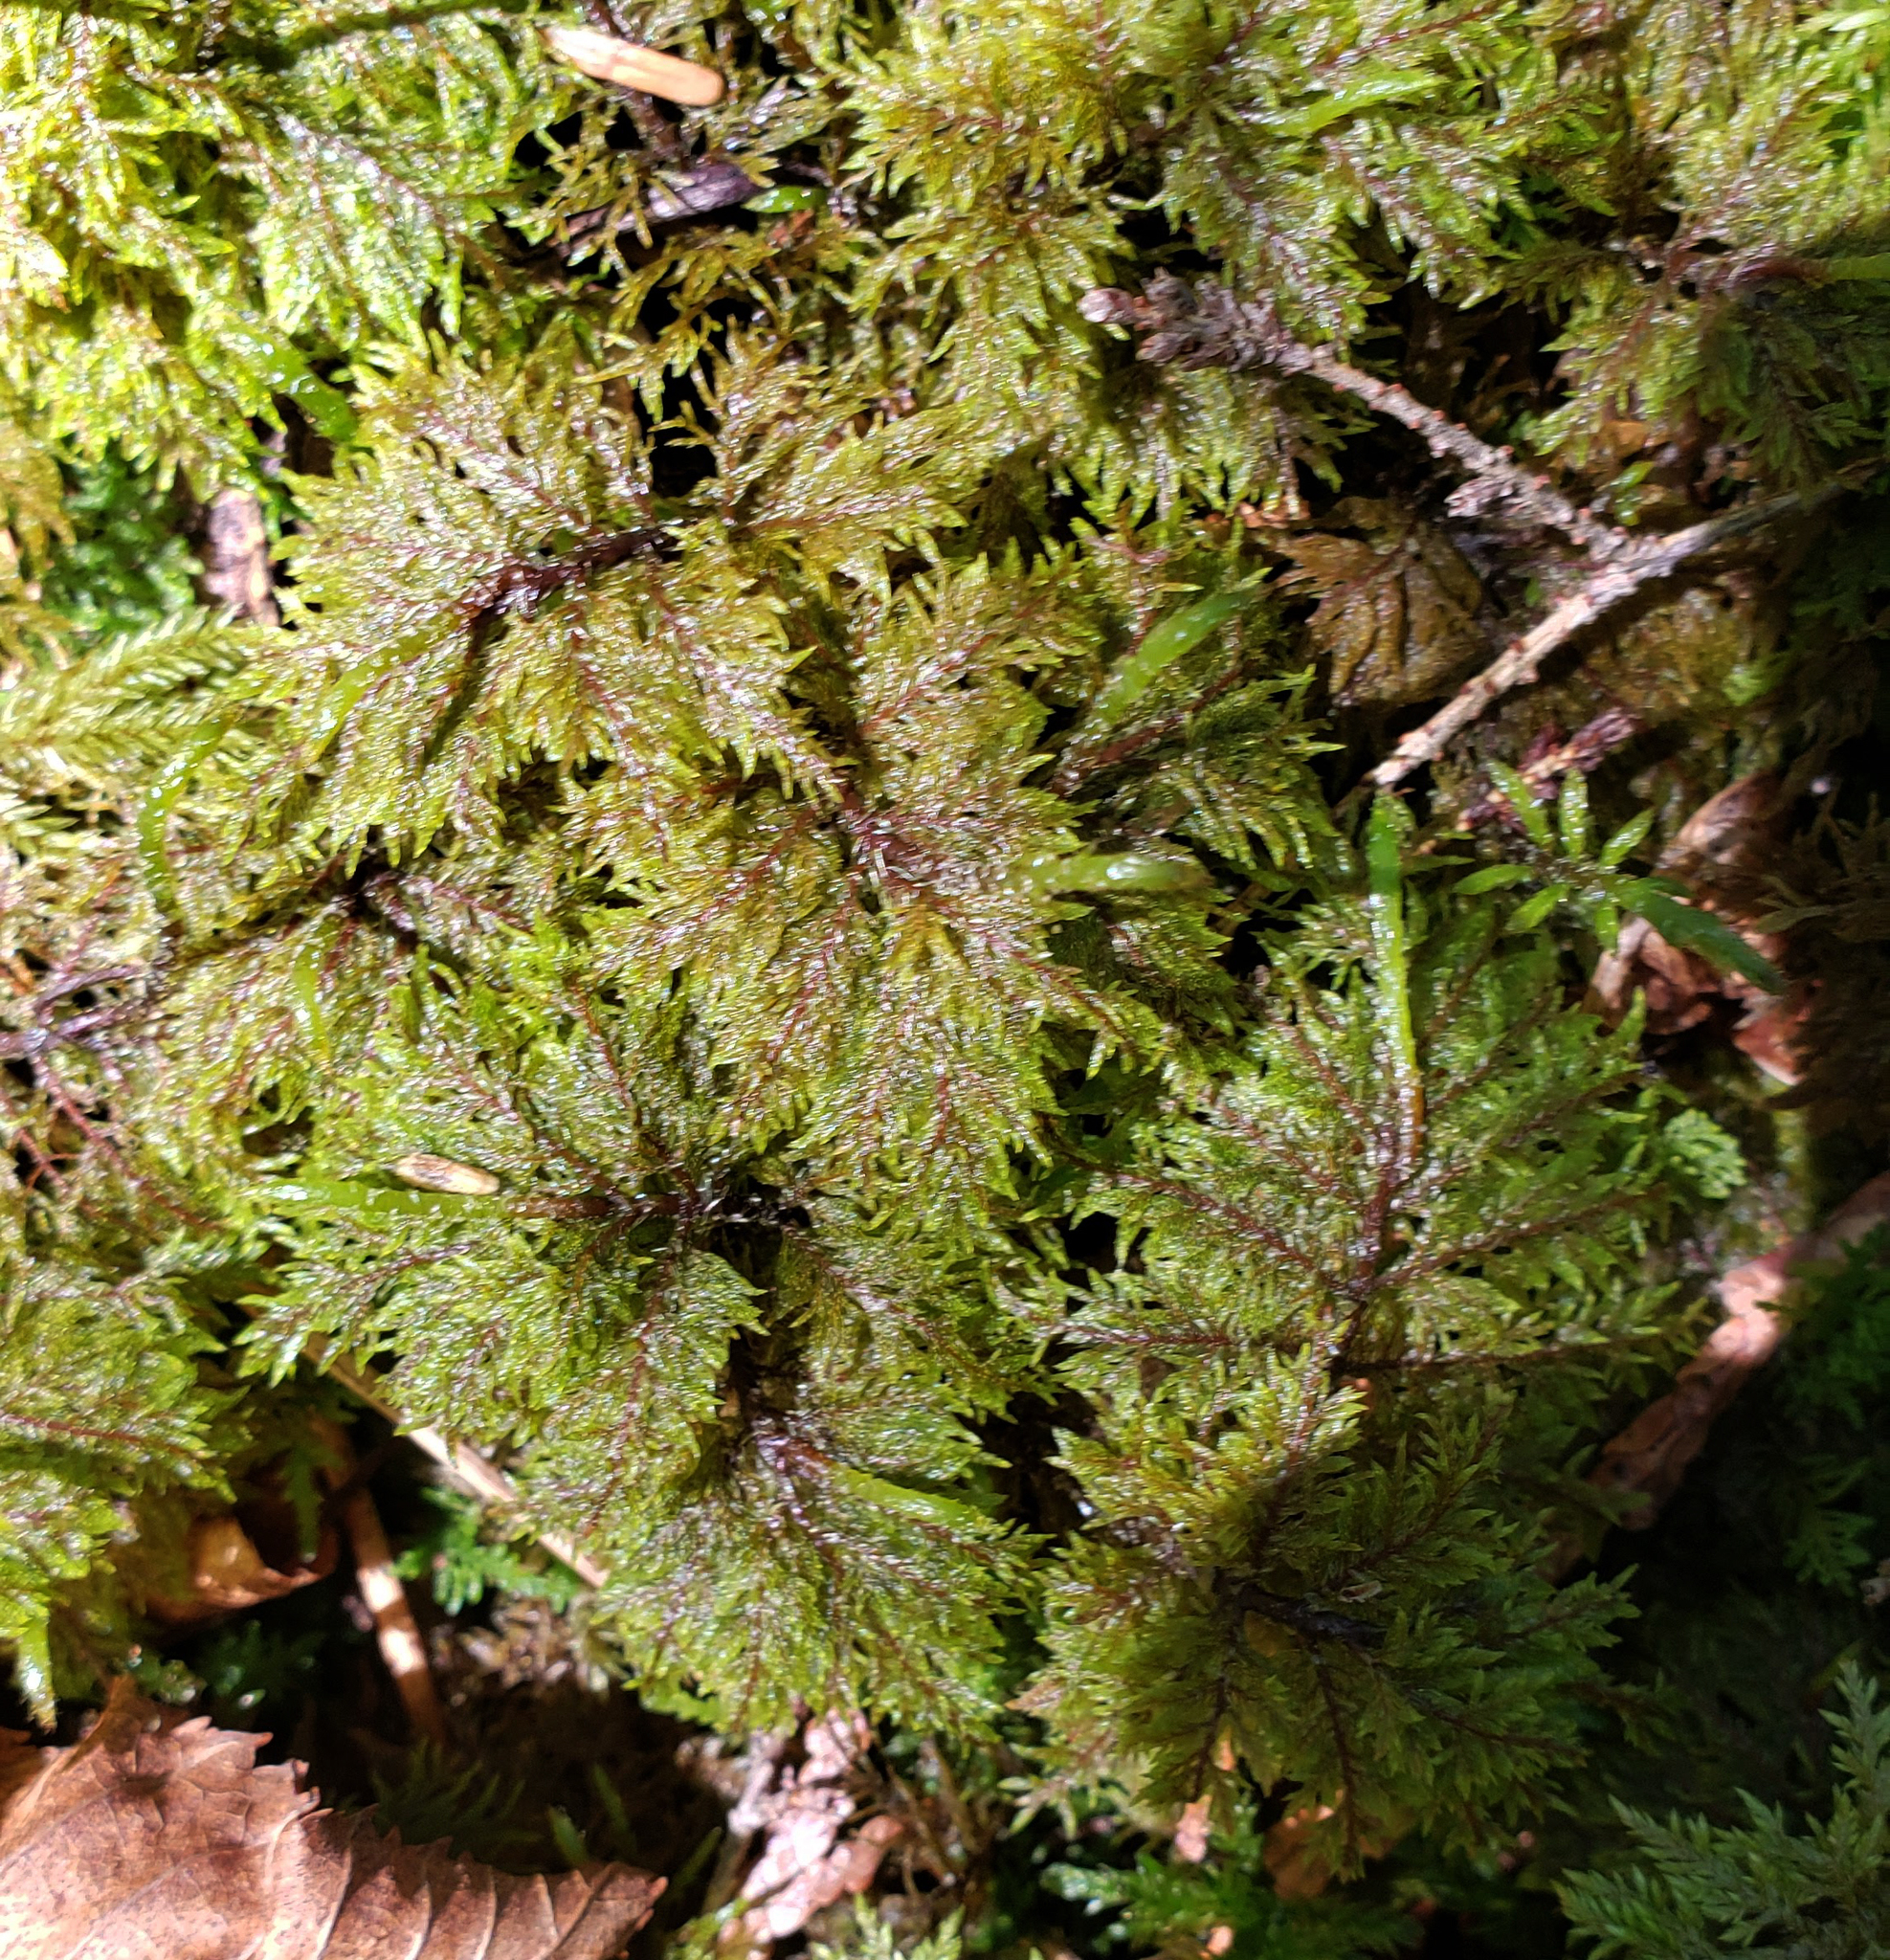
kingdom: Plantae
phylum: Bryophyta
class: Bryopsida
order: Hypnales
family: Hylocomiaceae
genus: Hylocomium
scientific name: Hylocomium splendens
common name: Stairstep moss
